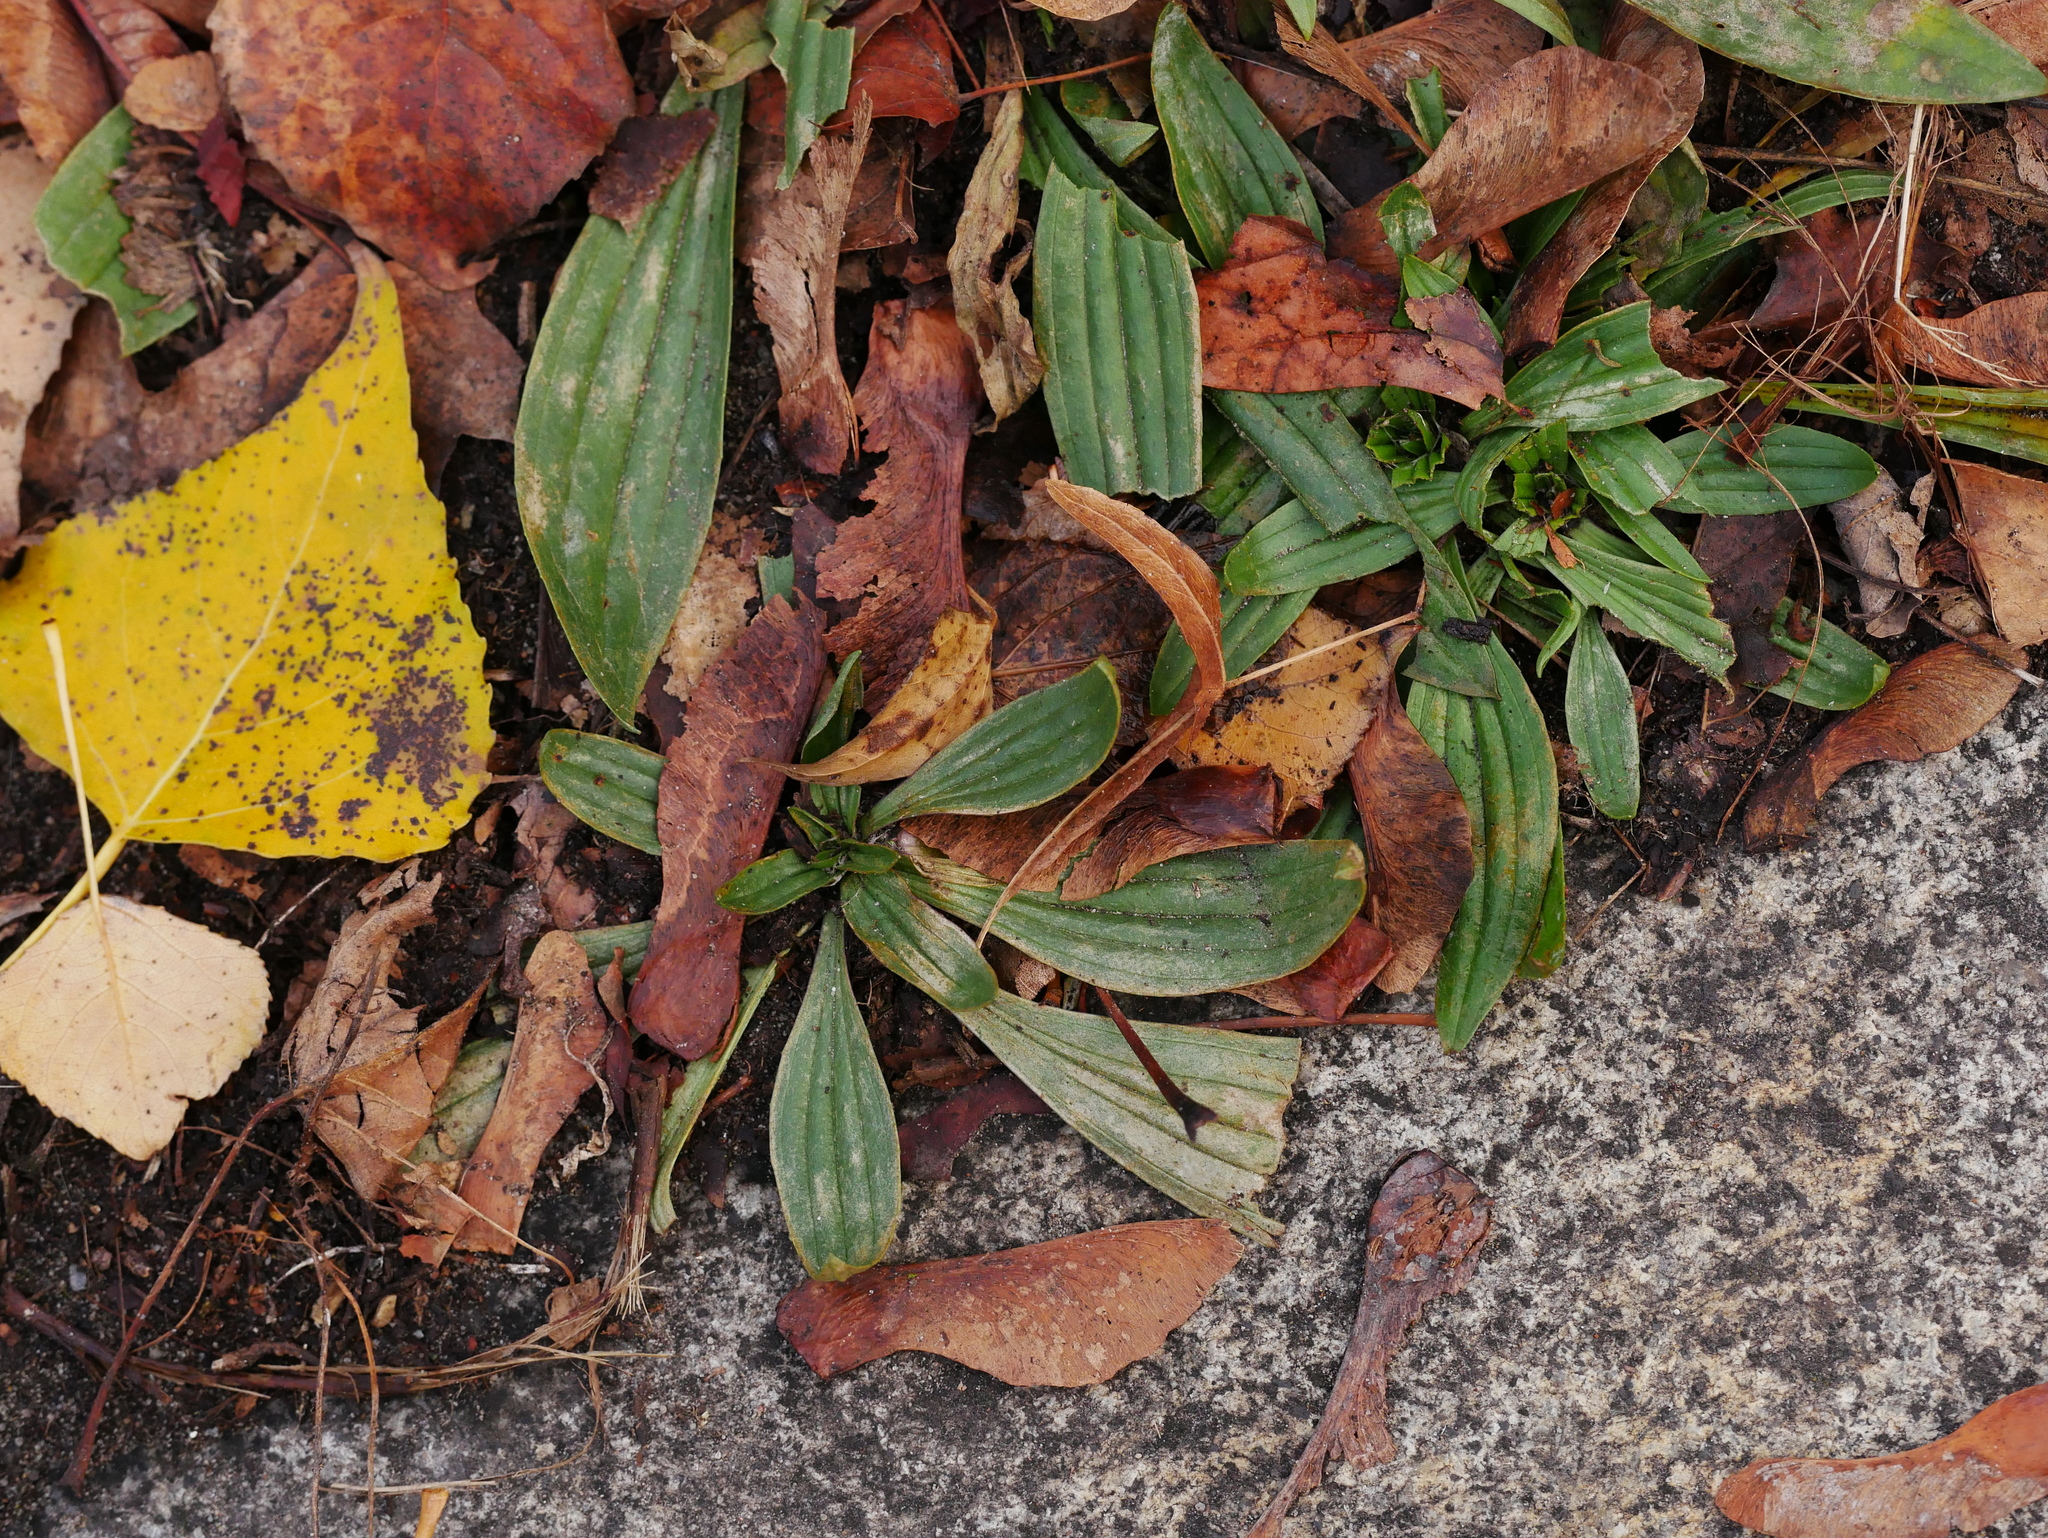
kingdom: Plantae
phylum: Tracheophyta
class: Magnoliopsida
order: Lamiales
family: Plantaginaceae
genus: Plantago
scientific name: Plantago lanceolata
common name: Ribwort plantain
